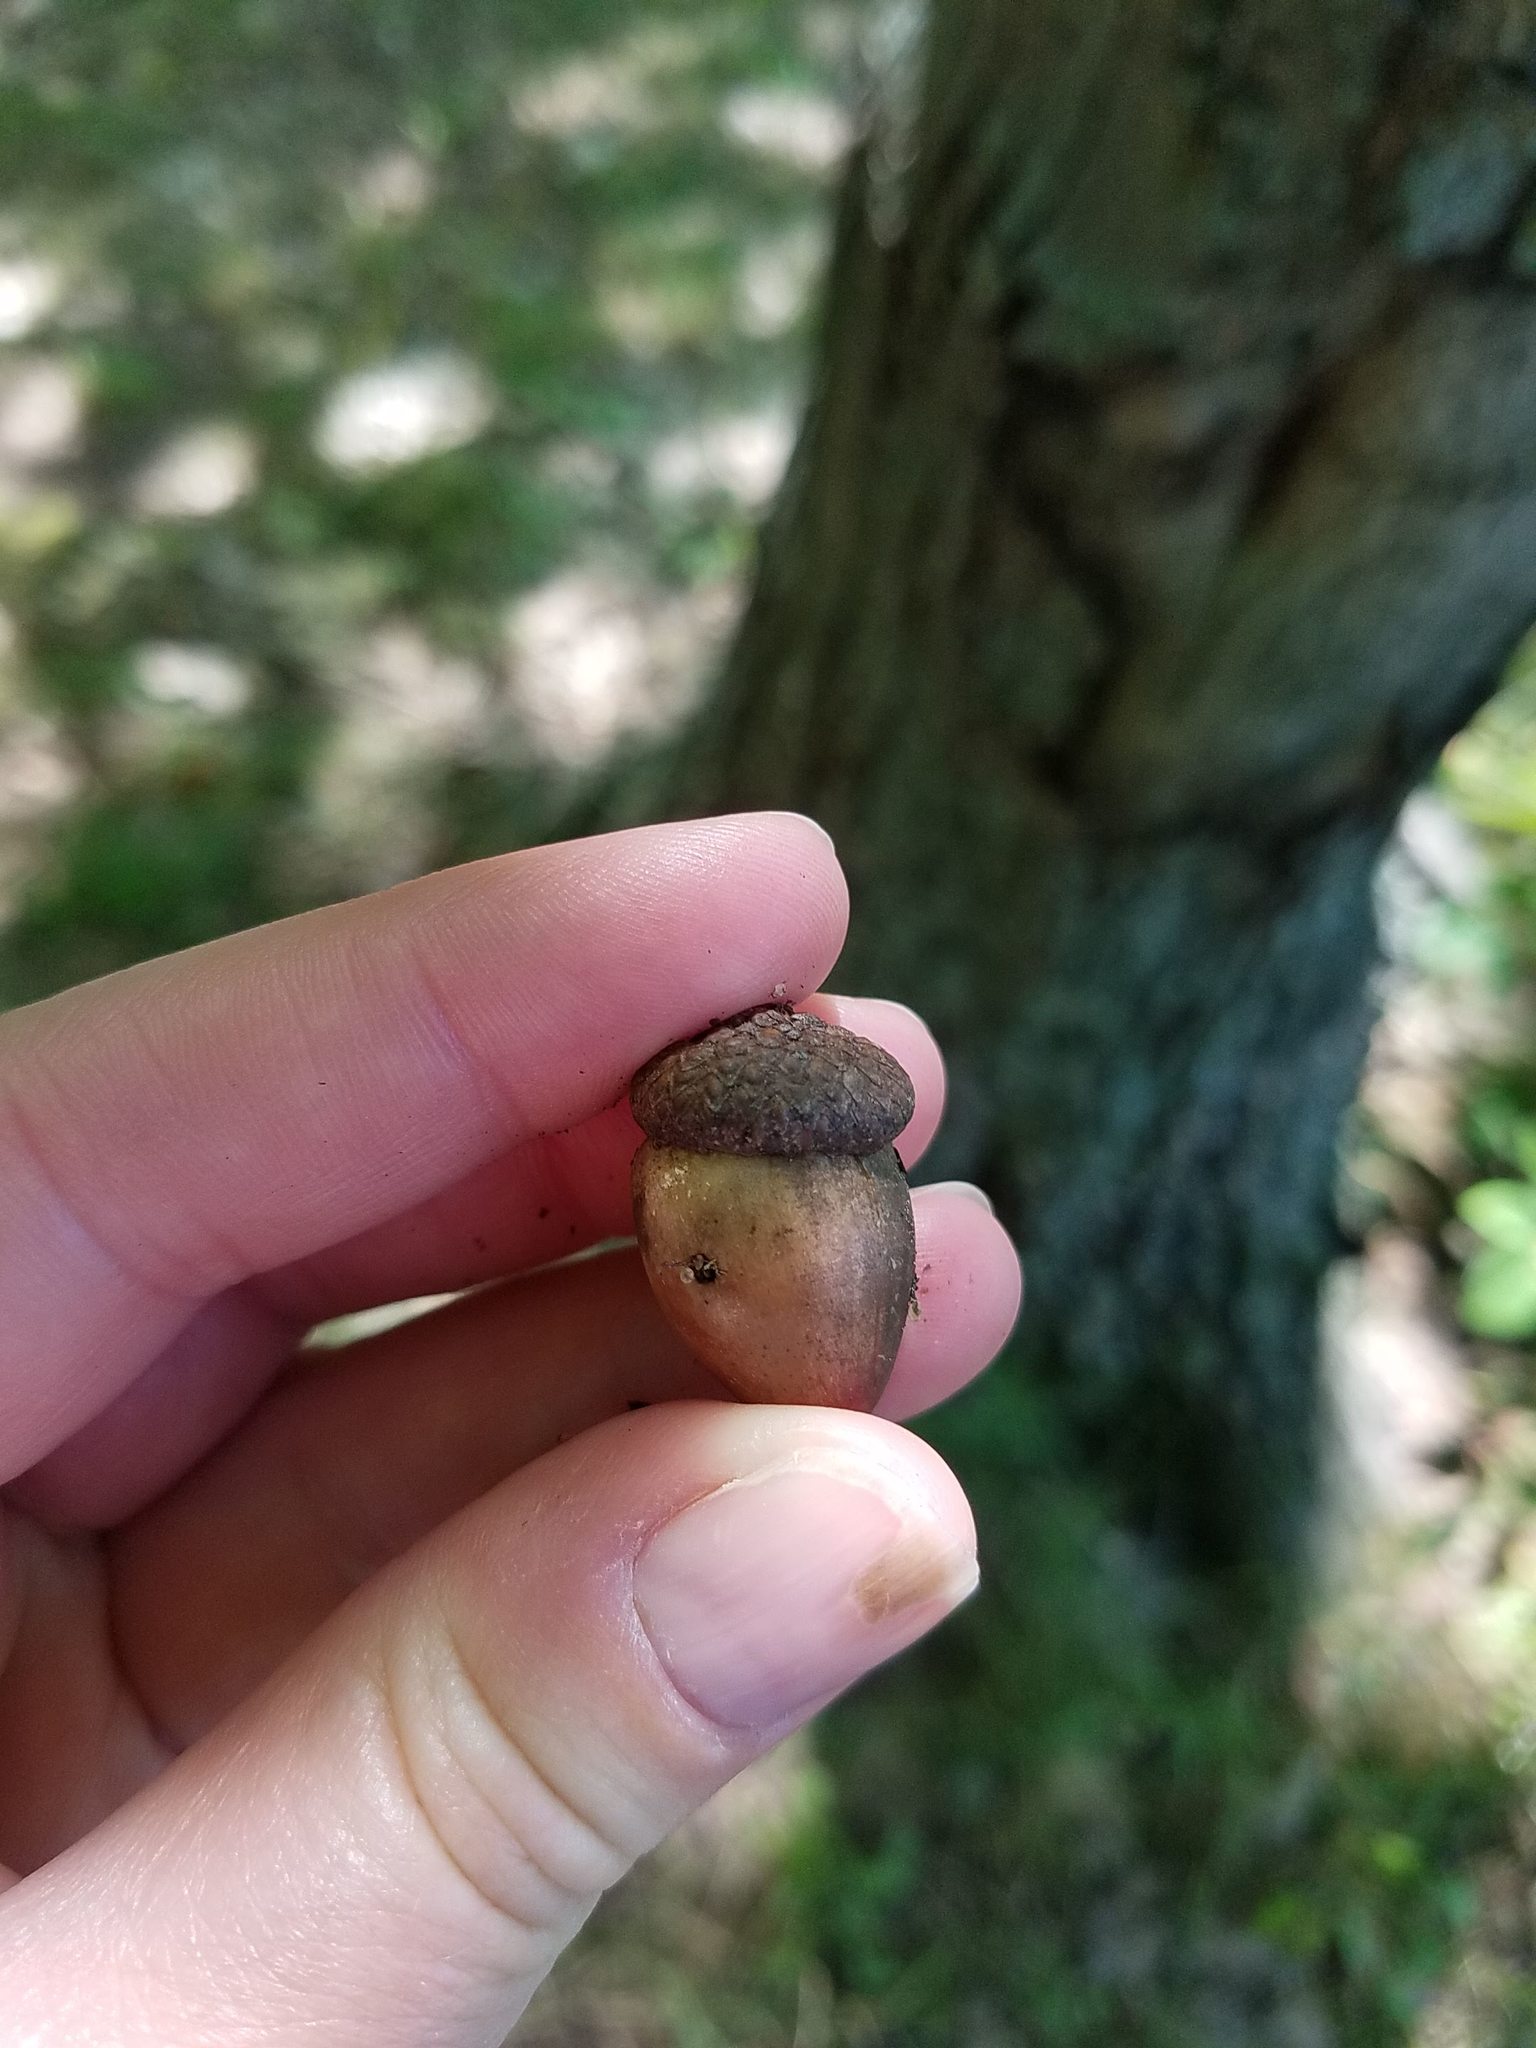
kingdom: Plantae
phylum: Tracheophyta
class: Magnoliopsida
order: Fagales
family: Fagaceae
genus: Quercus
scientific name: Quercus rubra
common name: Red oak
